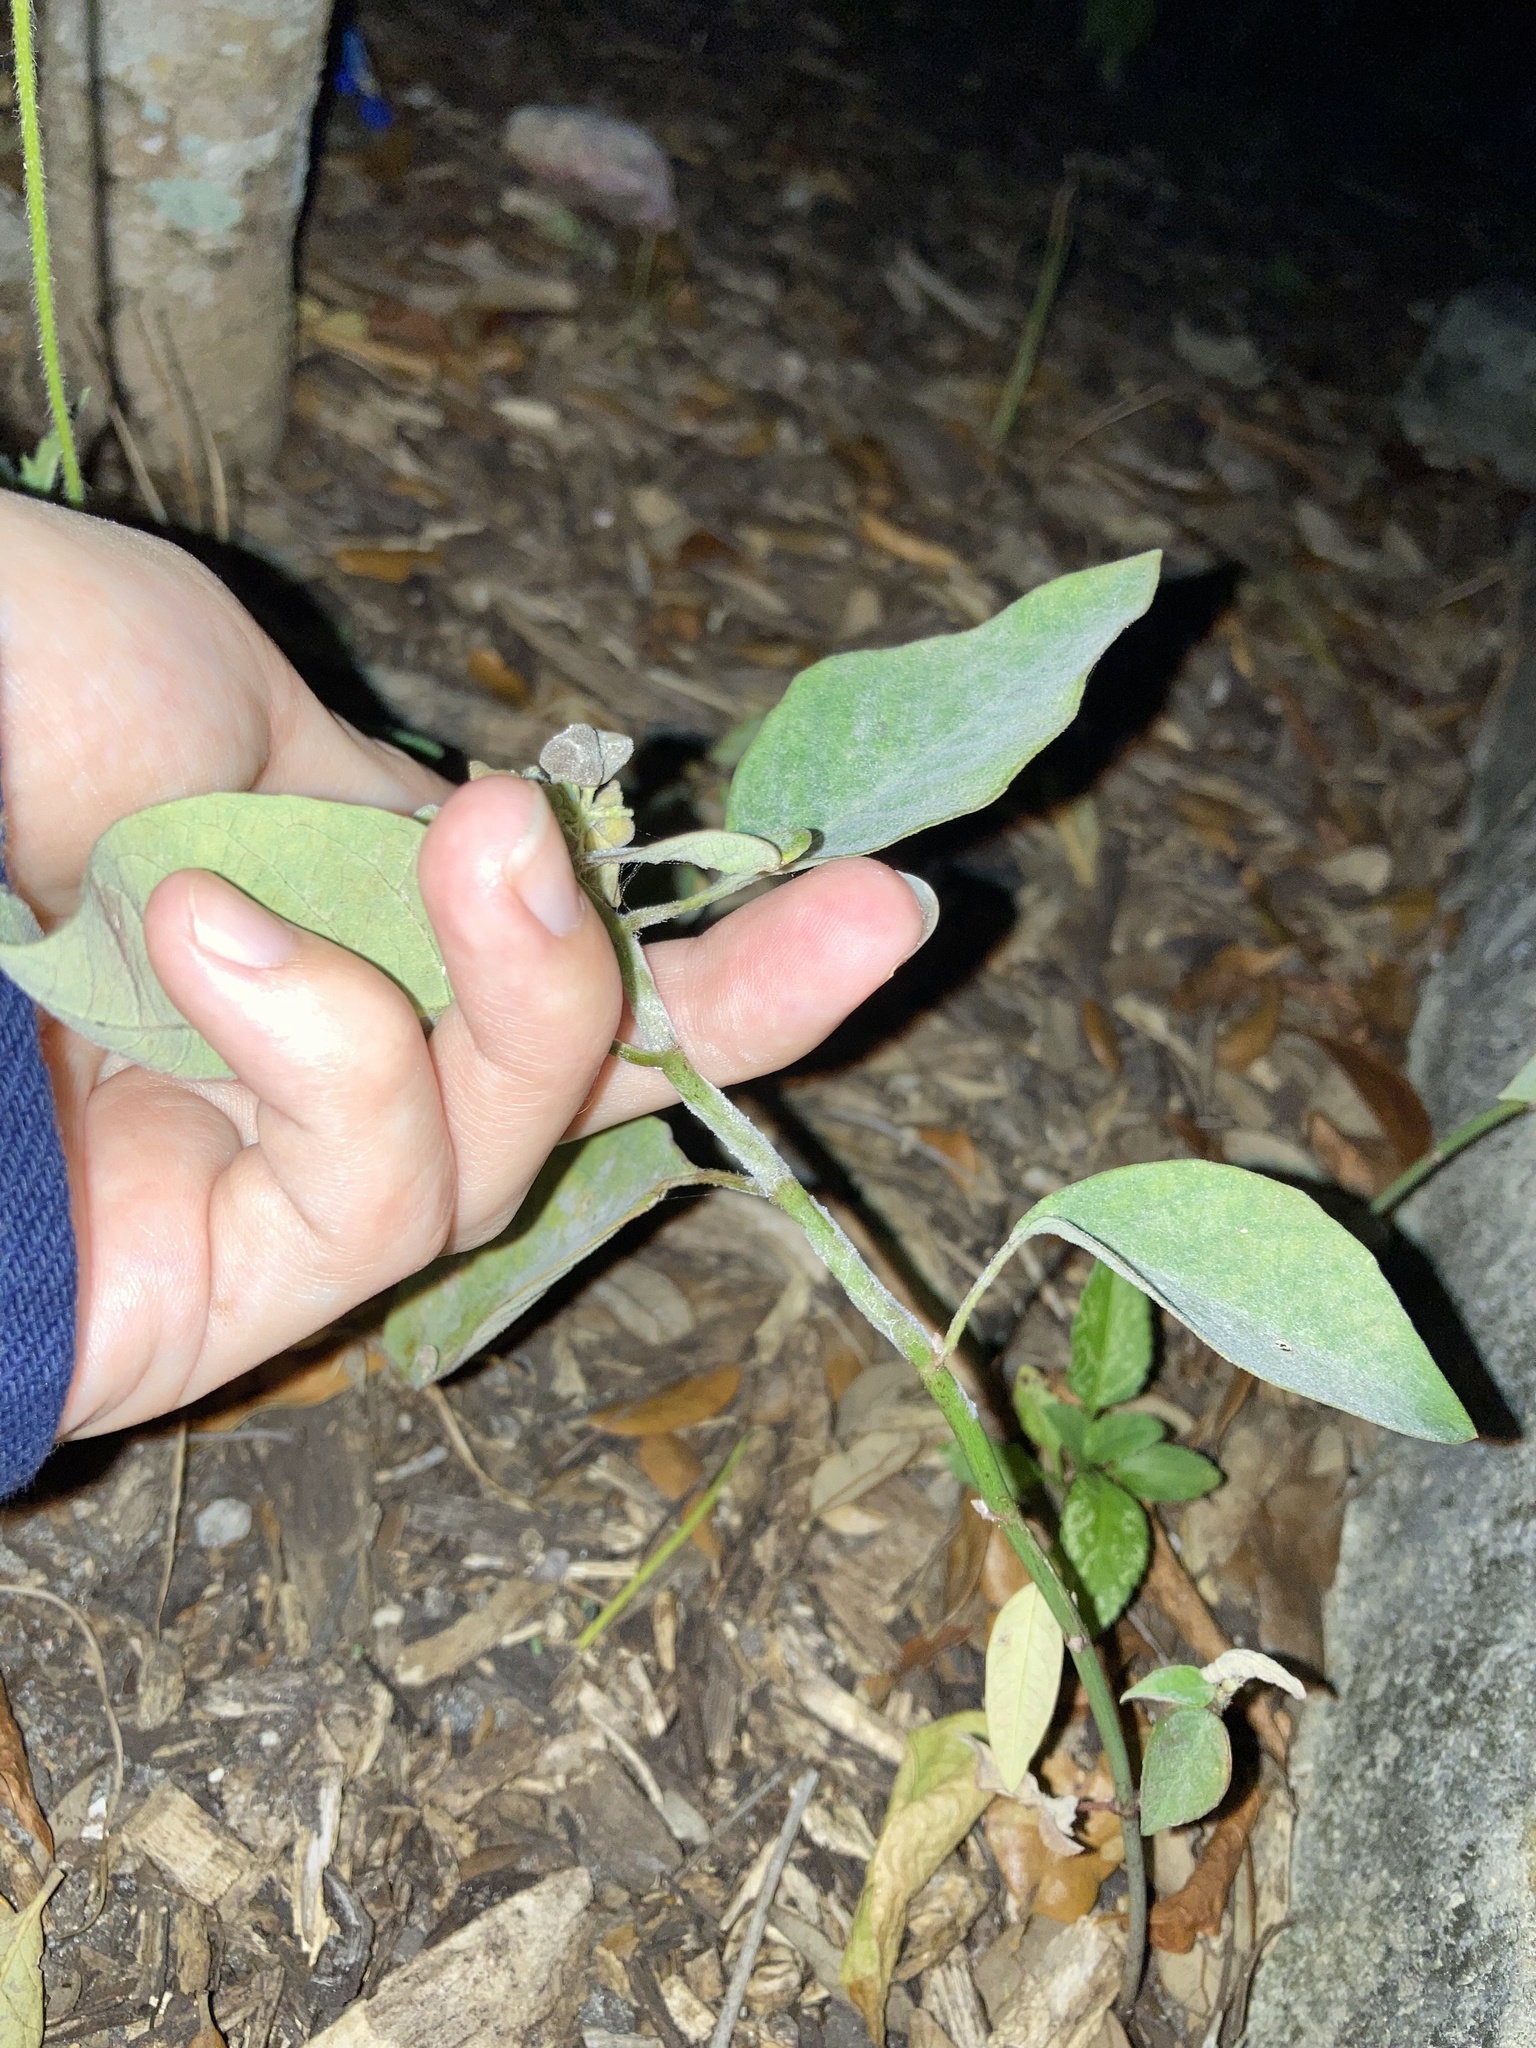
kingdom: Plantae
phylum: Tracheophyta
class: Magnoliopsida
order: Malpighiales
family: Euphorbiaceae
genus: Euphorbia
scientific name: Euphorbia heterophylla
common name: Mexican fireplant
